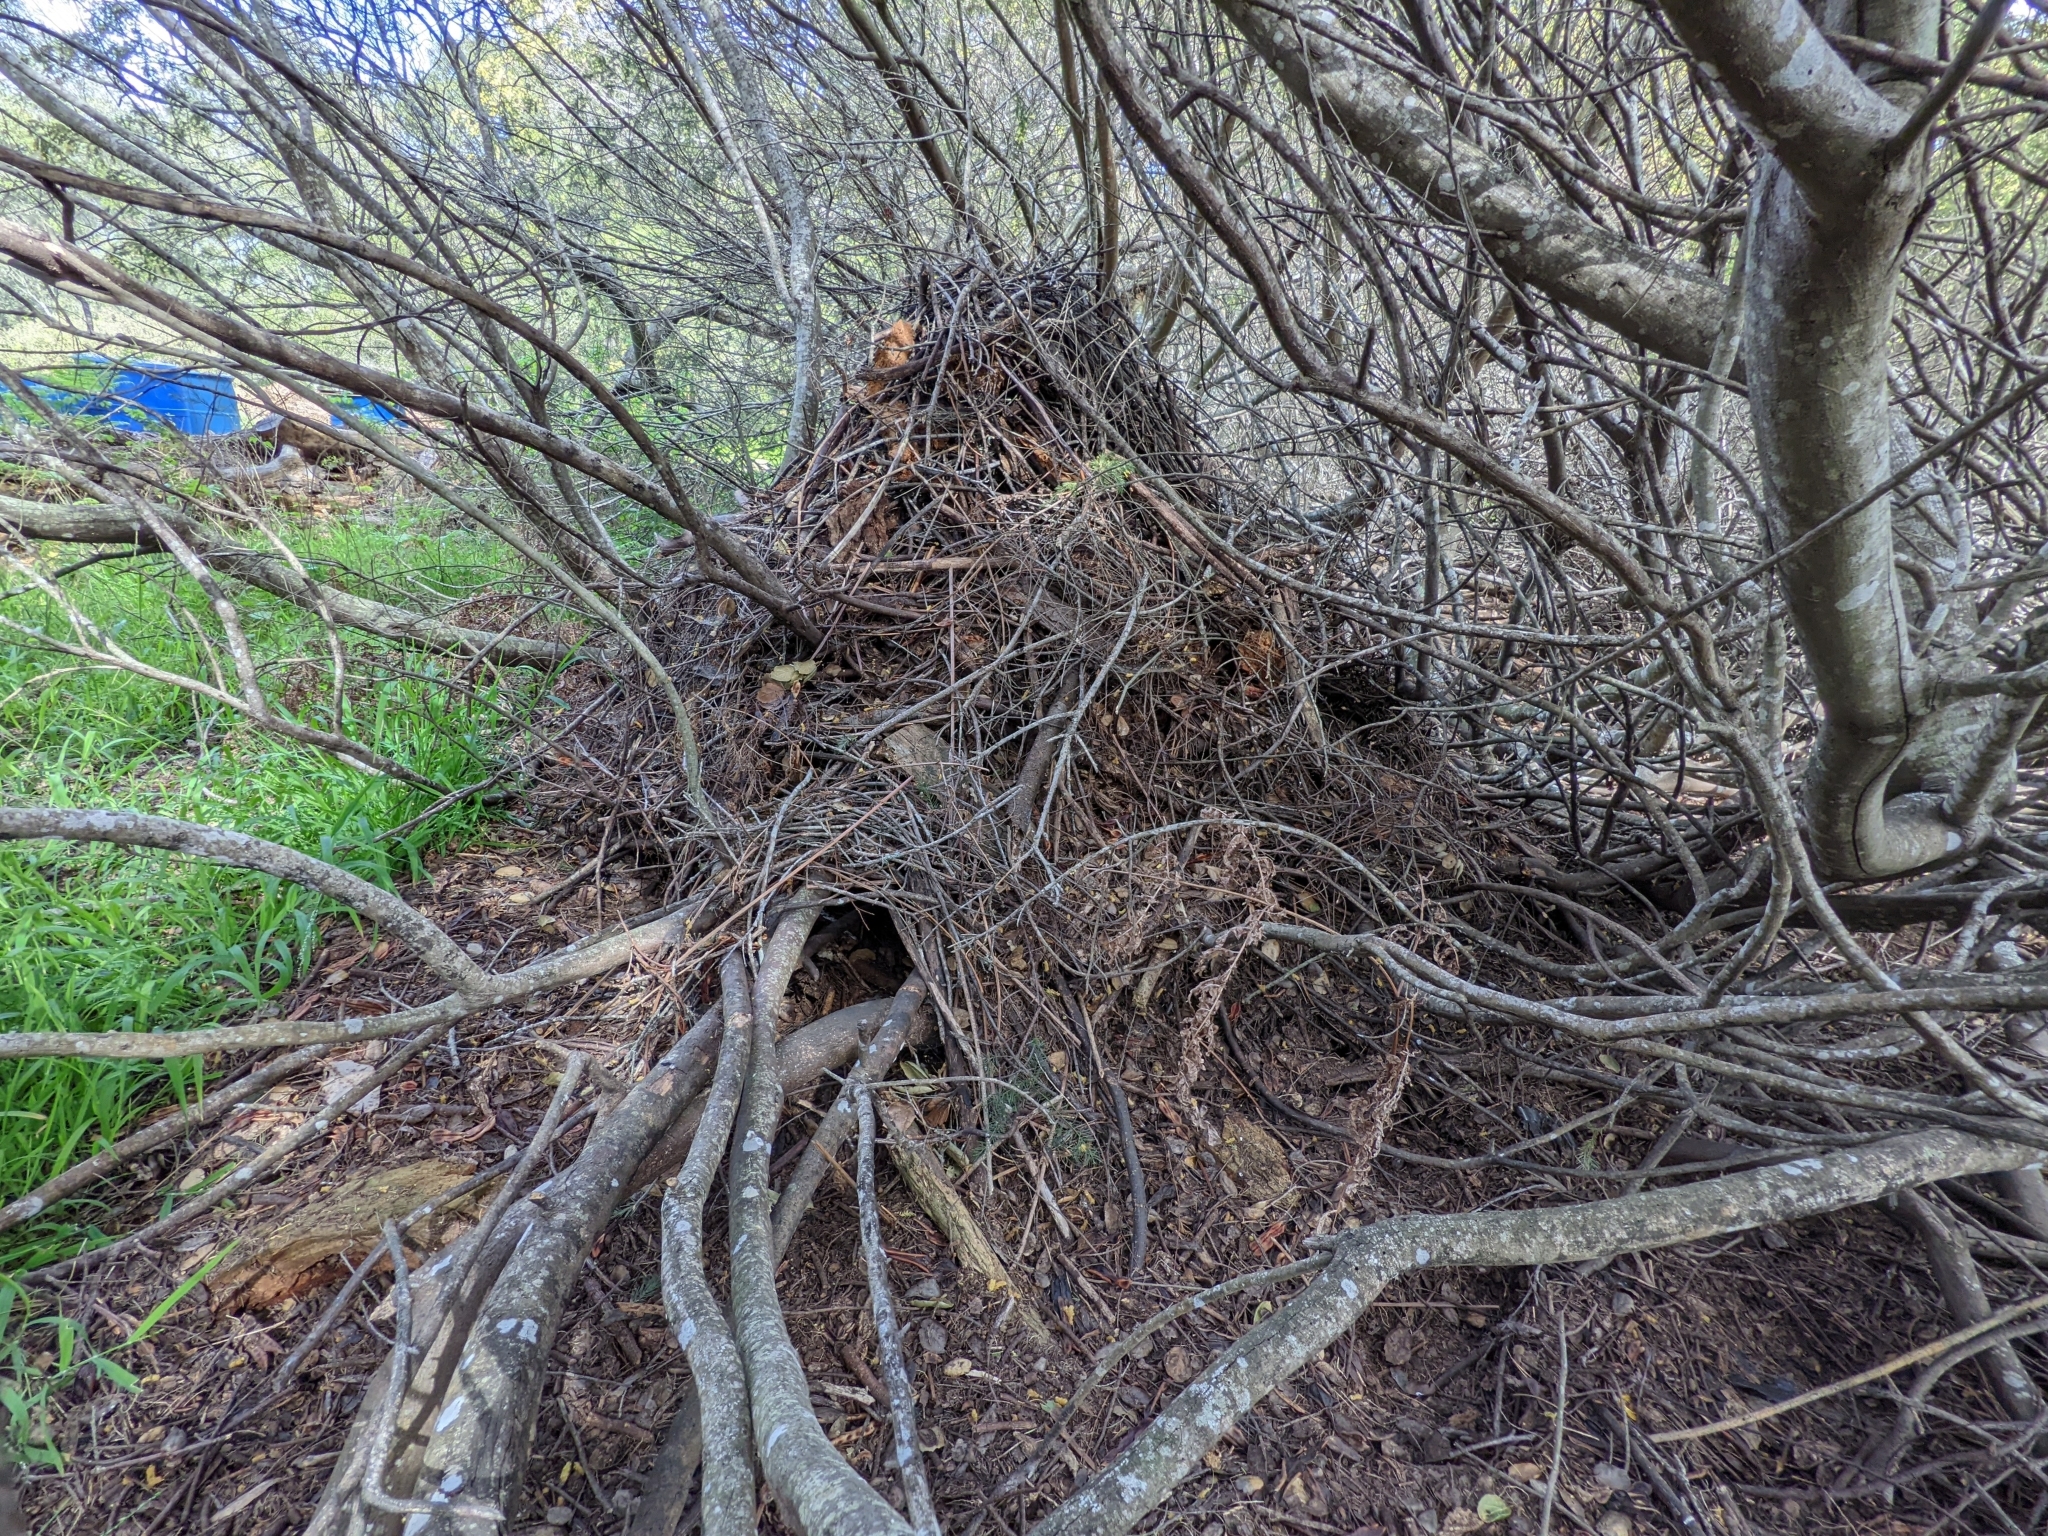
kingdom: Animalia
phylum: Chordata
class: Mammalia
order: Rodentia
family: Cricetidae
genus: Neotoma
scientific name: Neotoma fuscipes
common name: Dusky-footed woodrat
